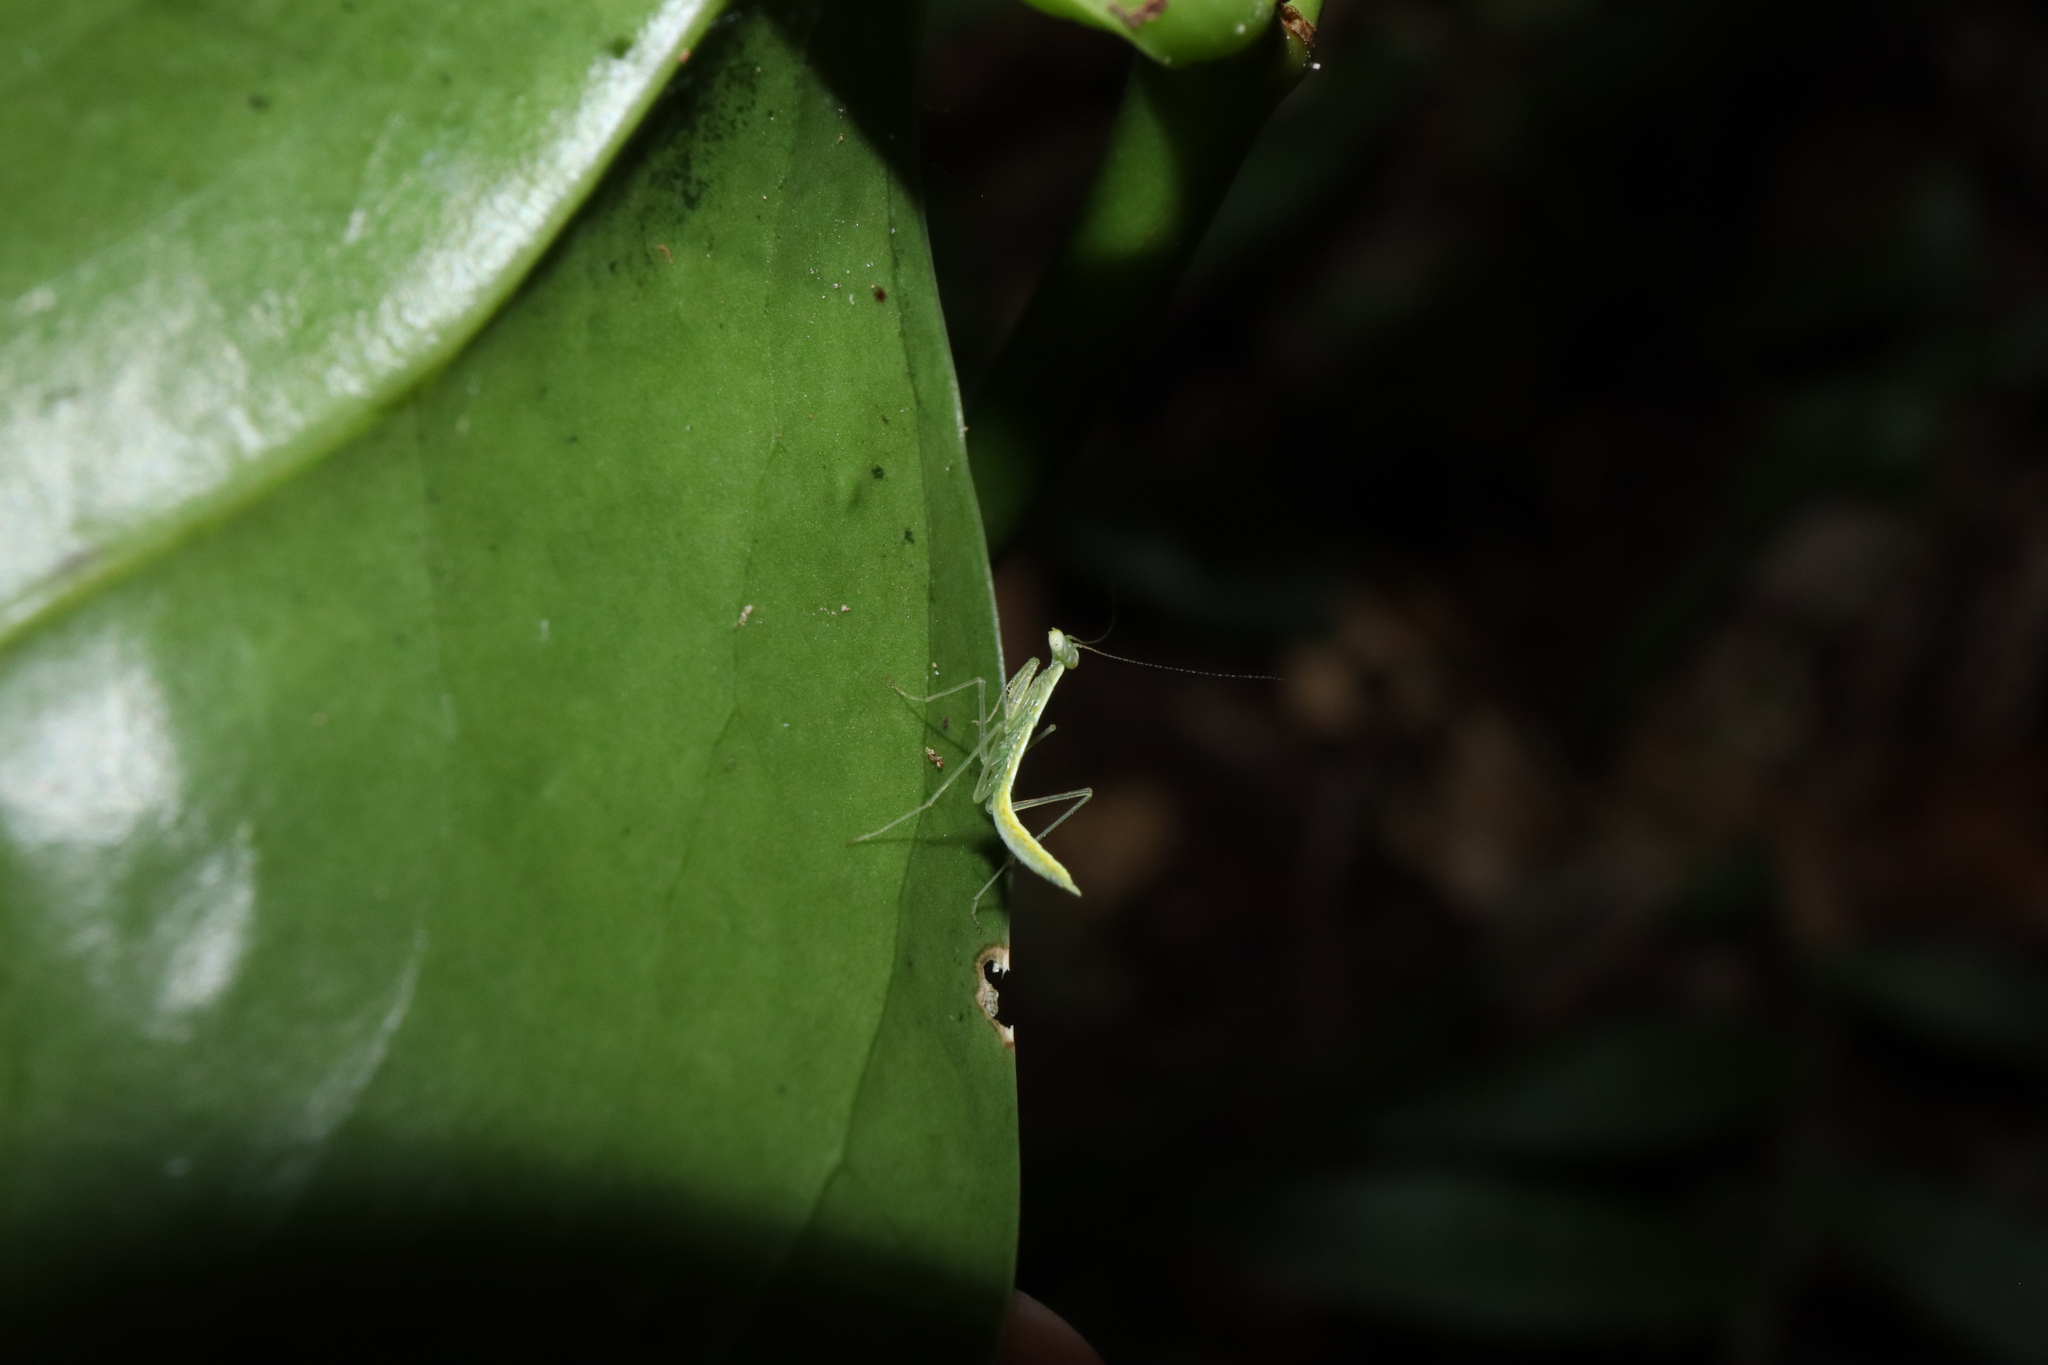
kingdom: Animalia
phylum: Arthropoda
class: Insecta
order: Mantodea
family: Nanomantidae
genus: Neomantis
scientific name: Neomantis australis
